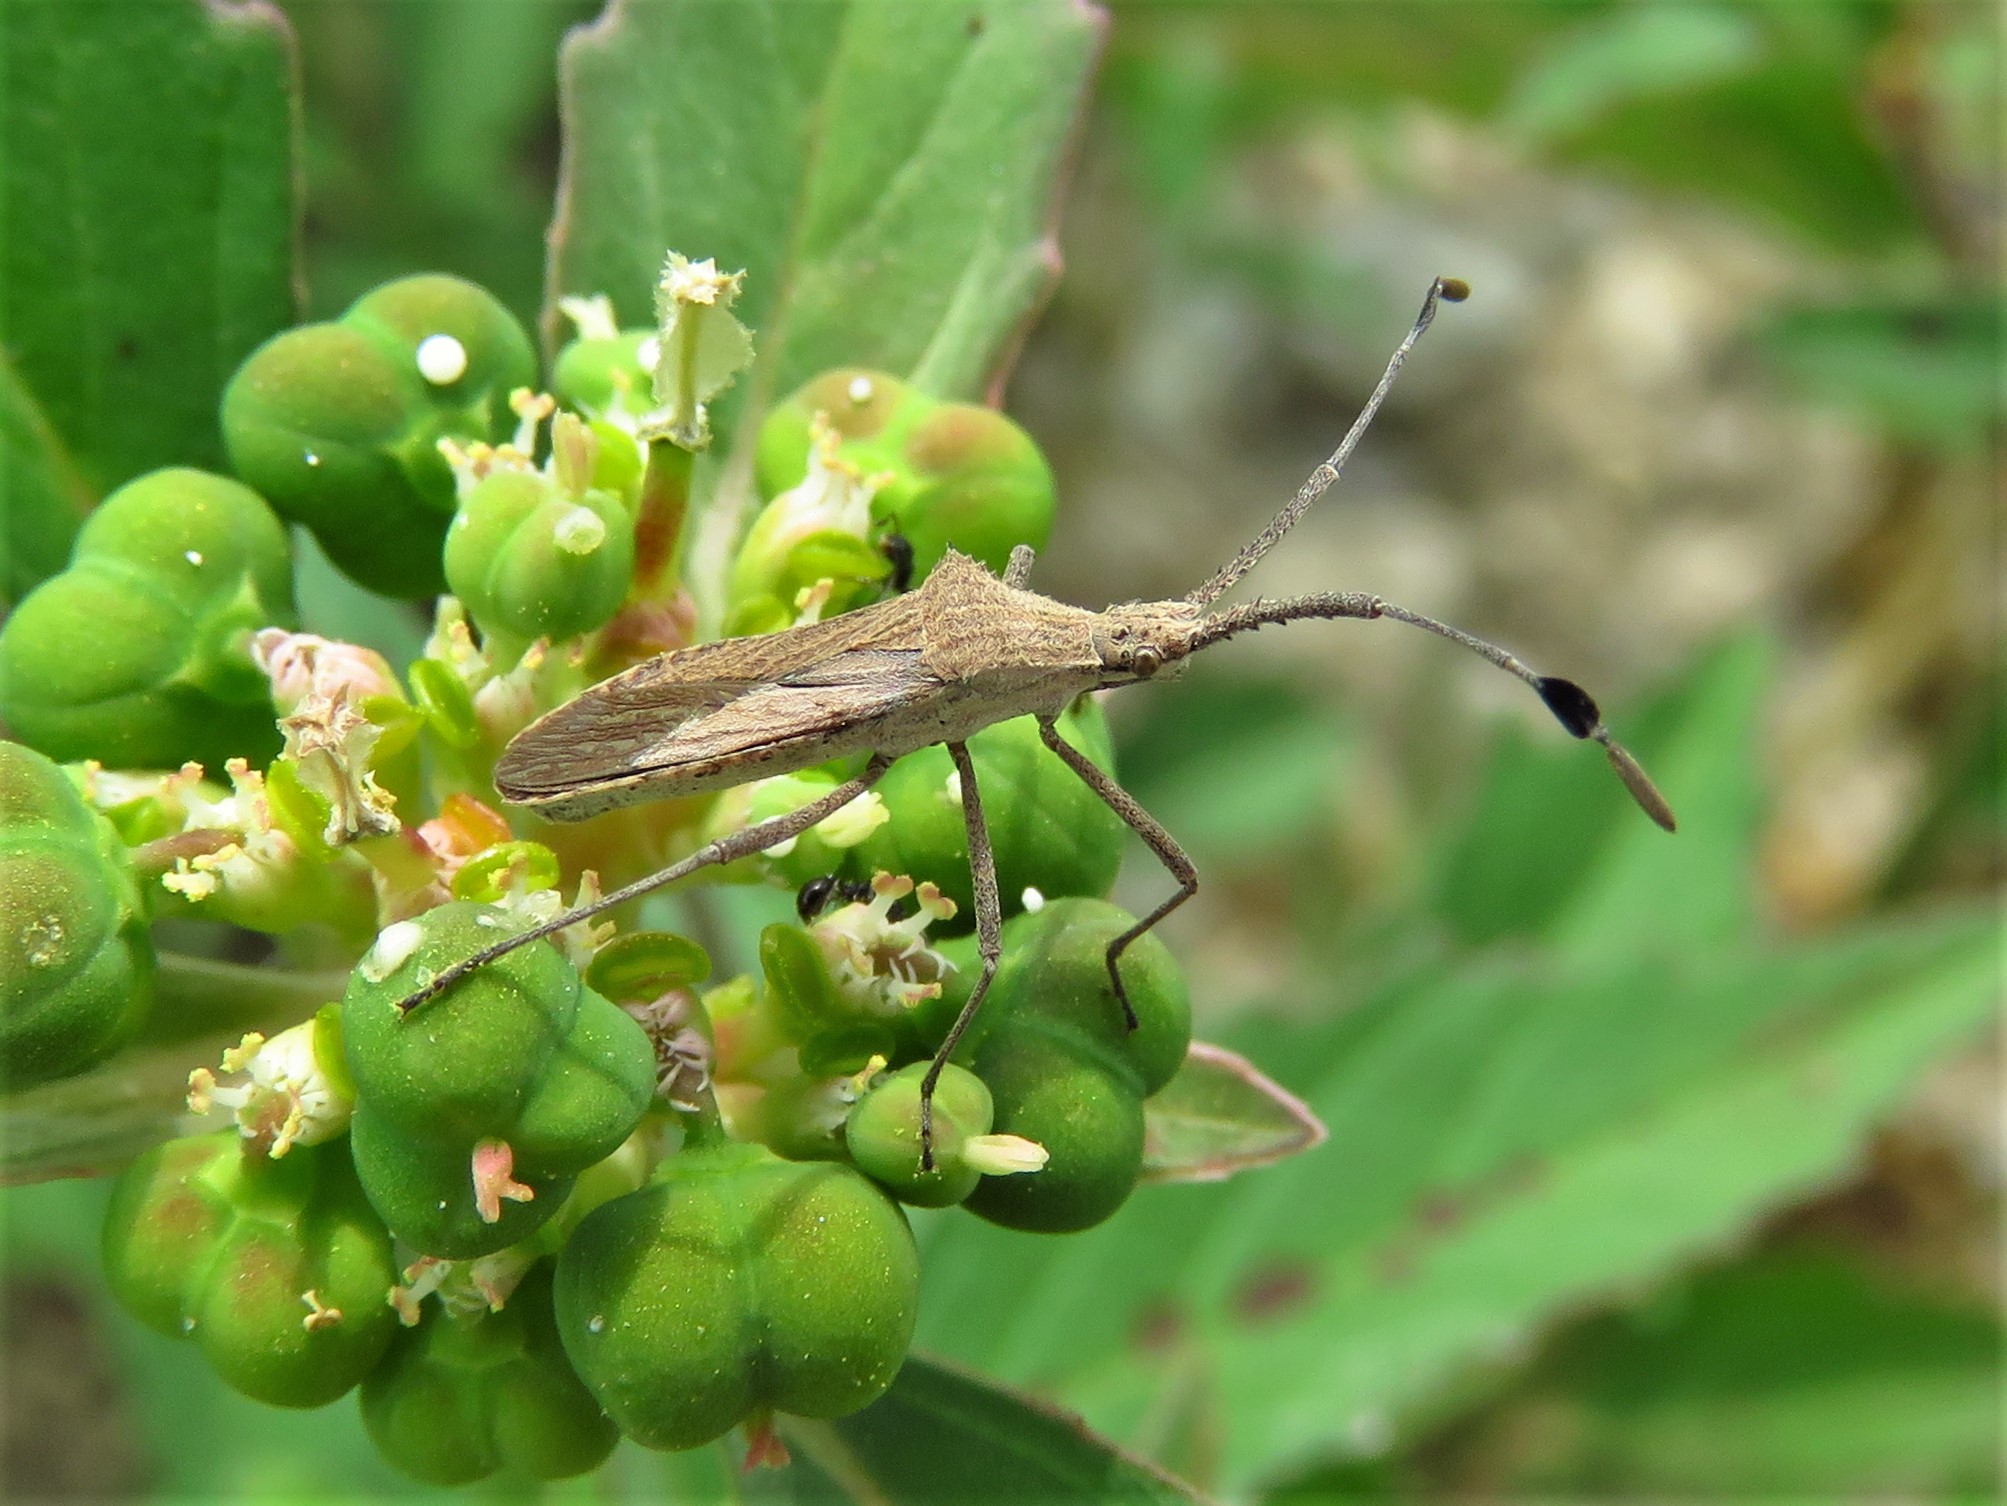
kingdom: Animalia
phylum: Arthropoda
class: Insecta
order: Hemiptera
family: Coreidae
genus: Chariesterus
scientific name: Chariesterus antennator
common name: Flat horned coreid
